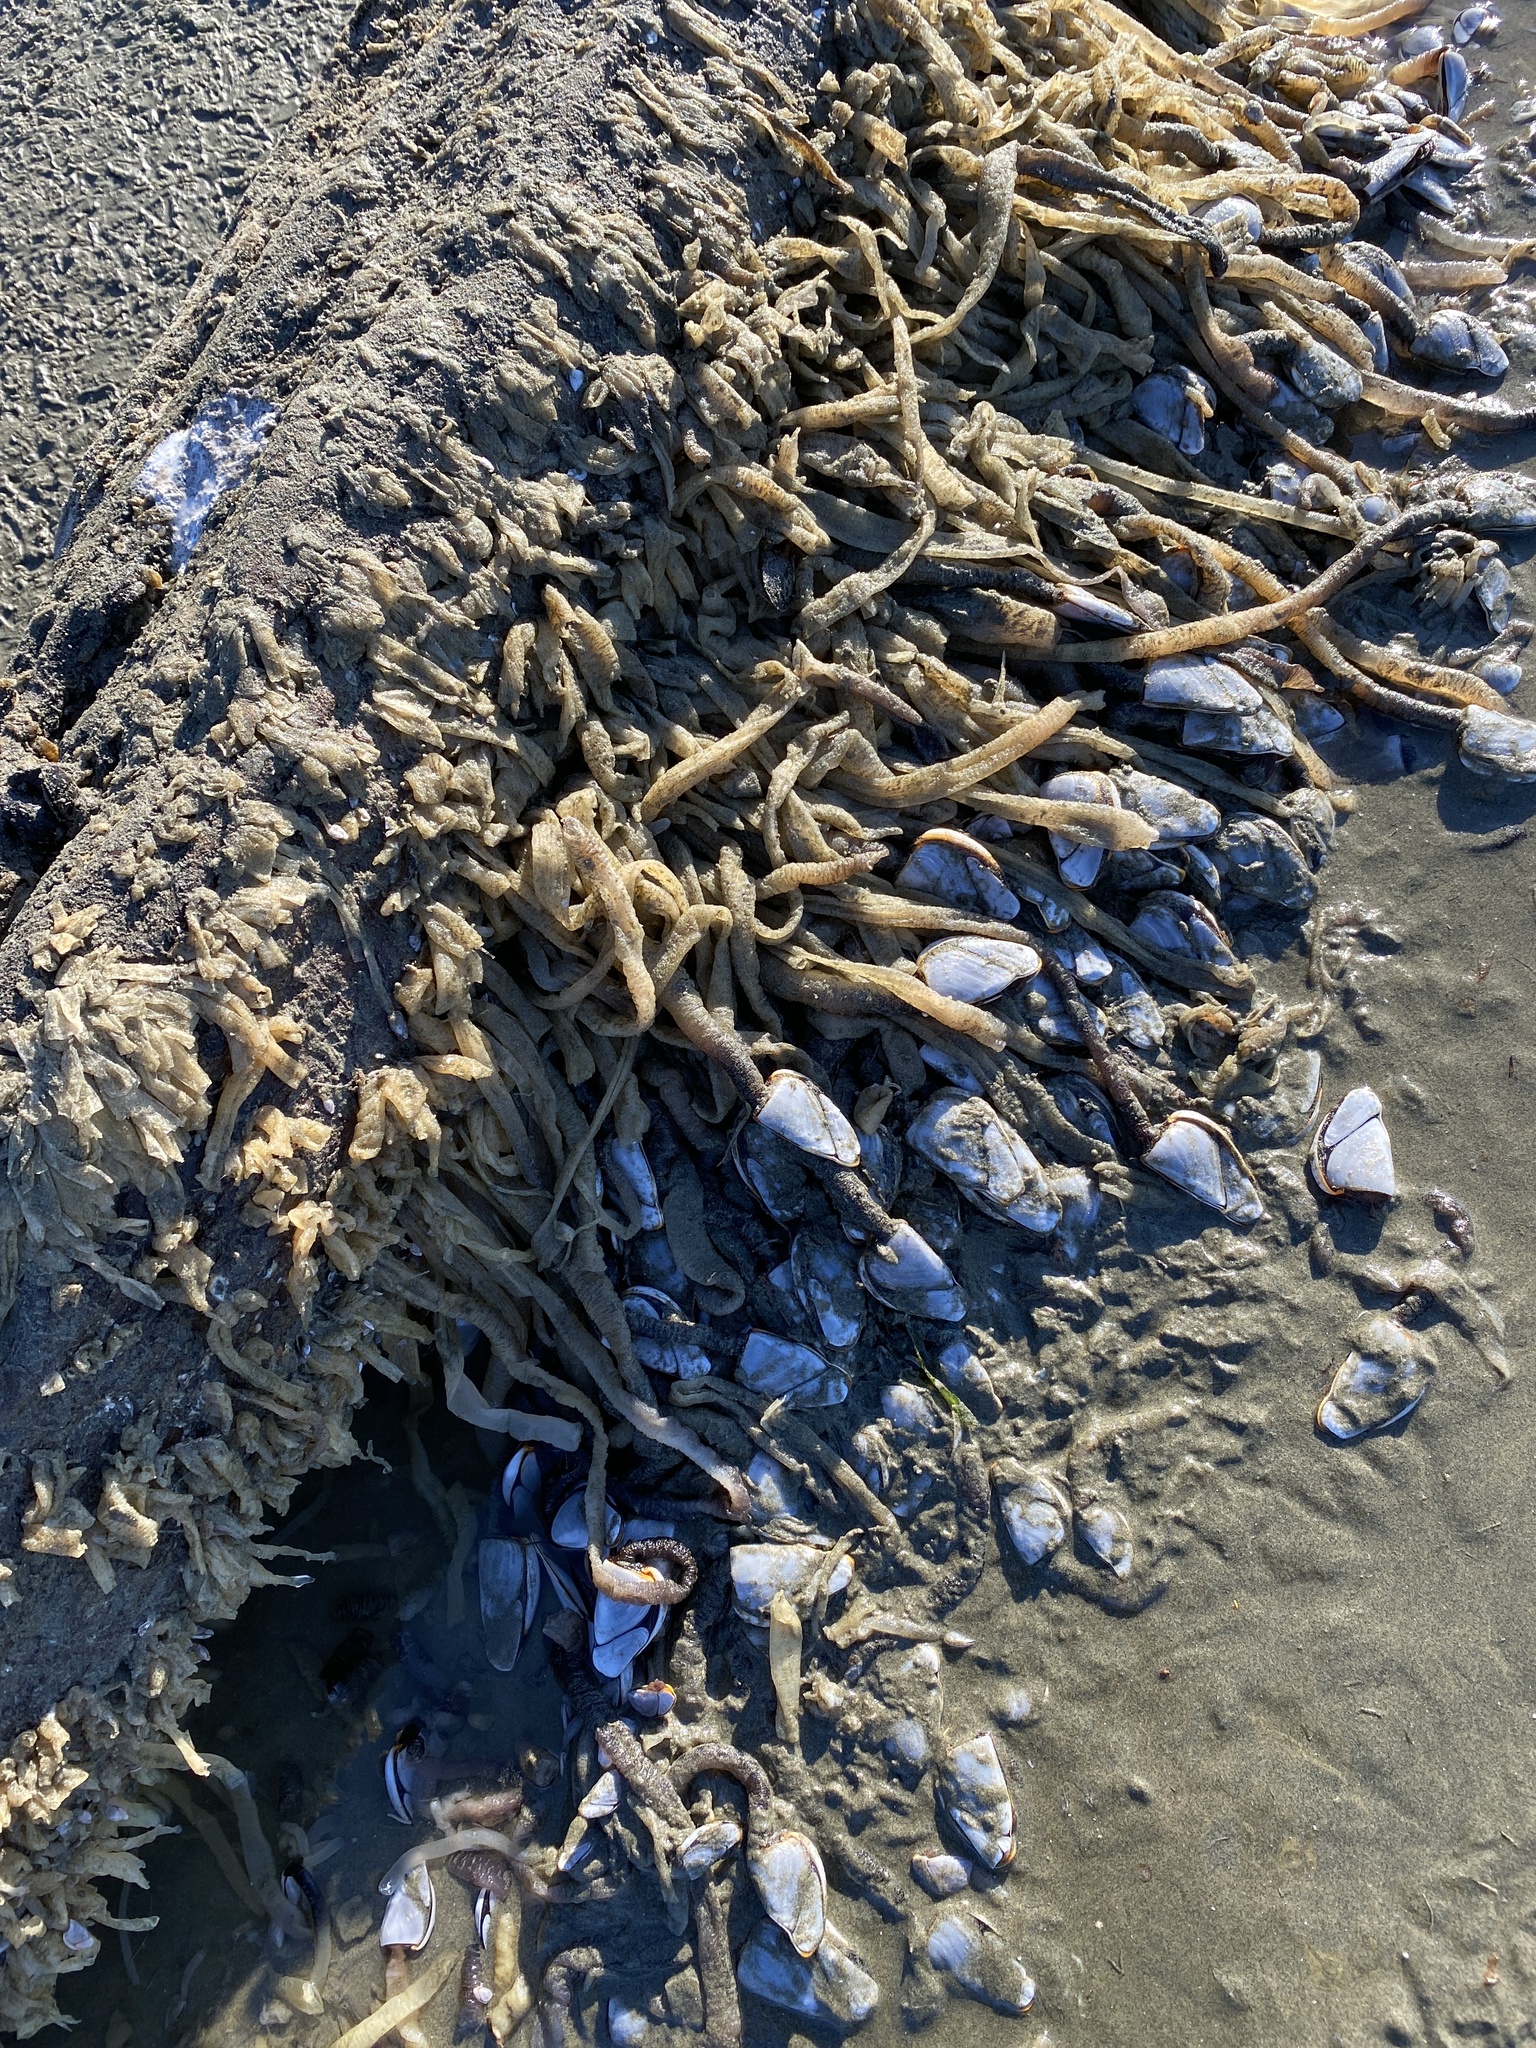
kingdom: Animalia
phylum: Arthropoda
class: Maxillopoda
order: Pedunculata
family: Lepadidae
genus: Lepas
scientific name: Lepas anatifera
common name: Common goose barnacle
